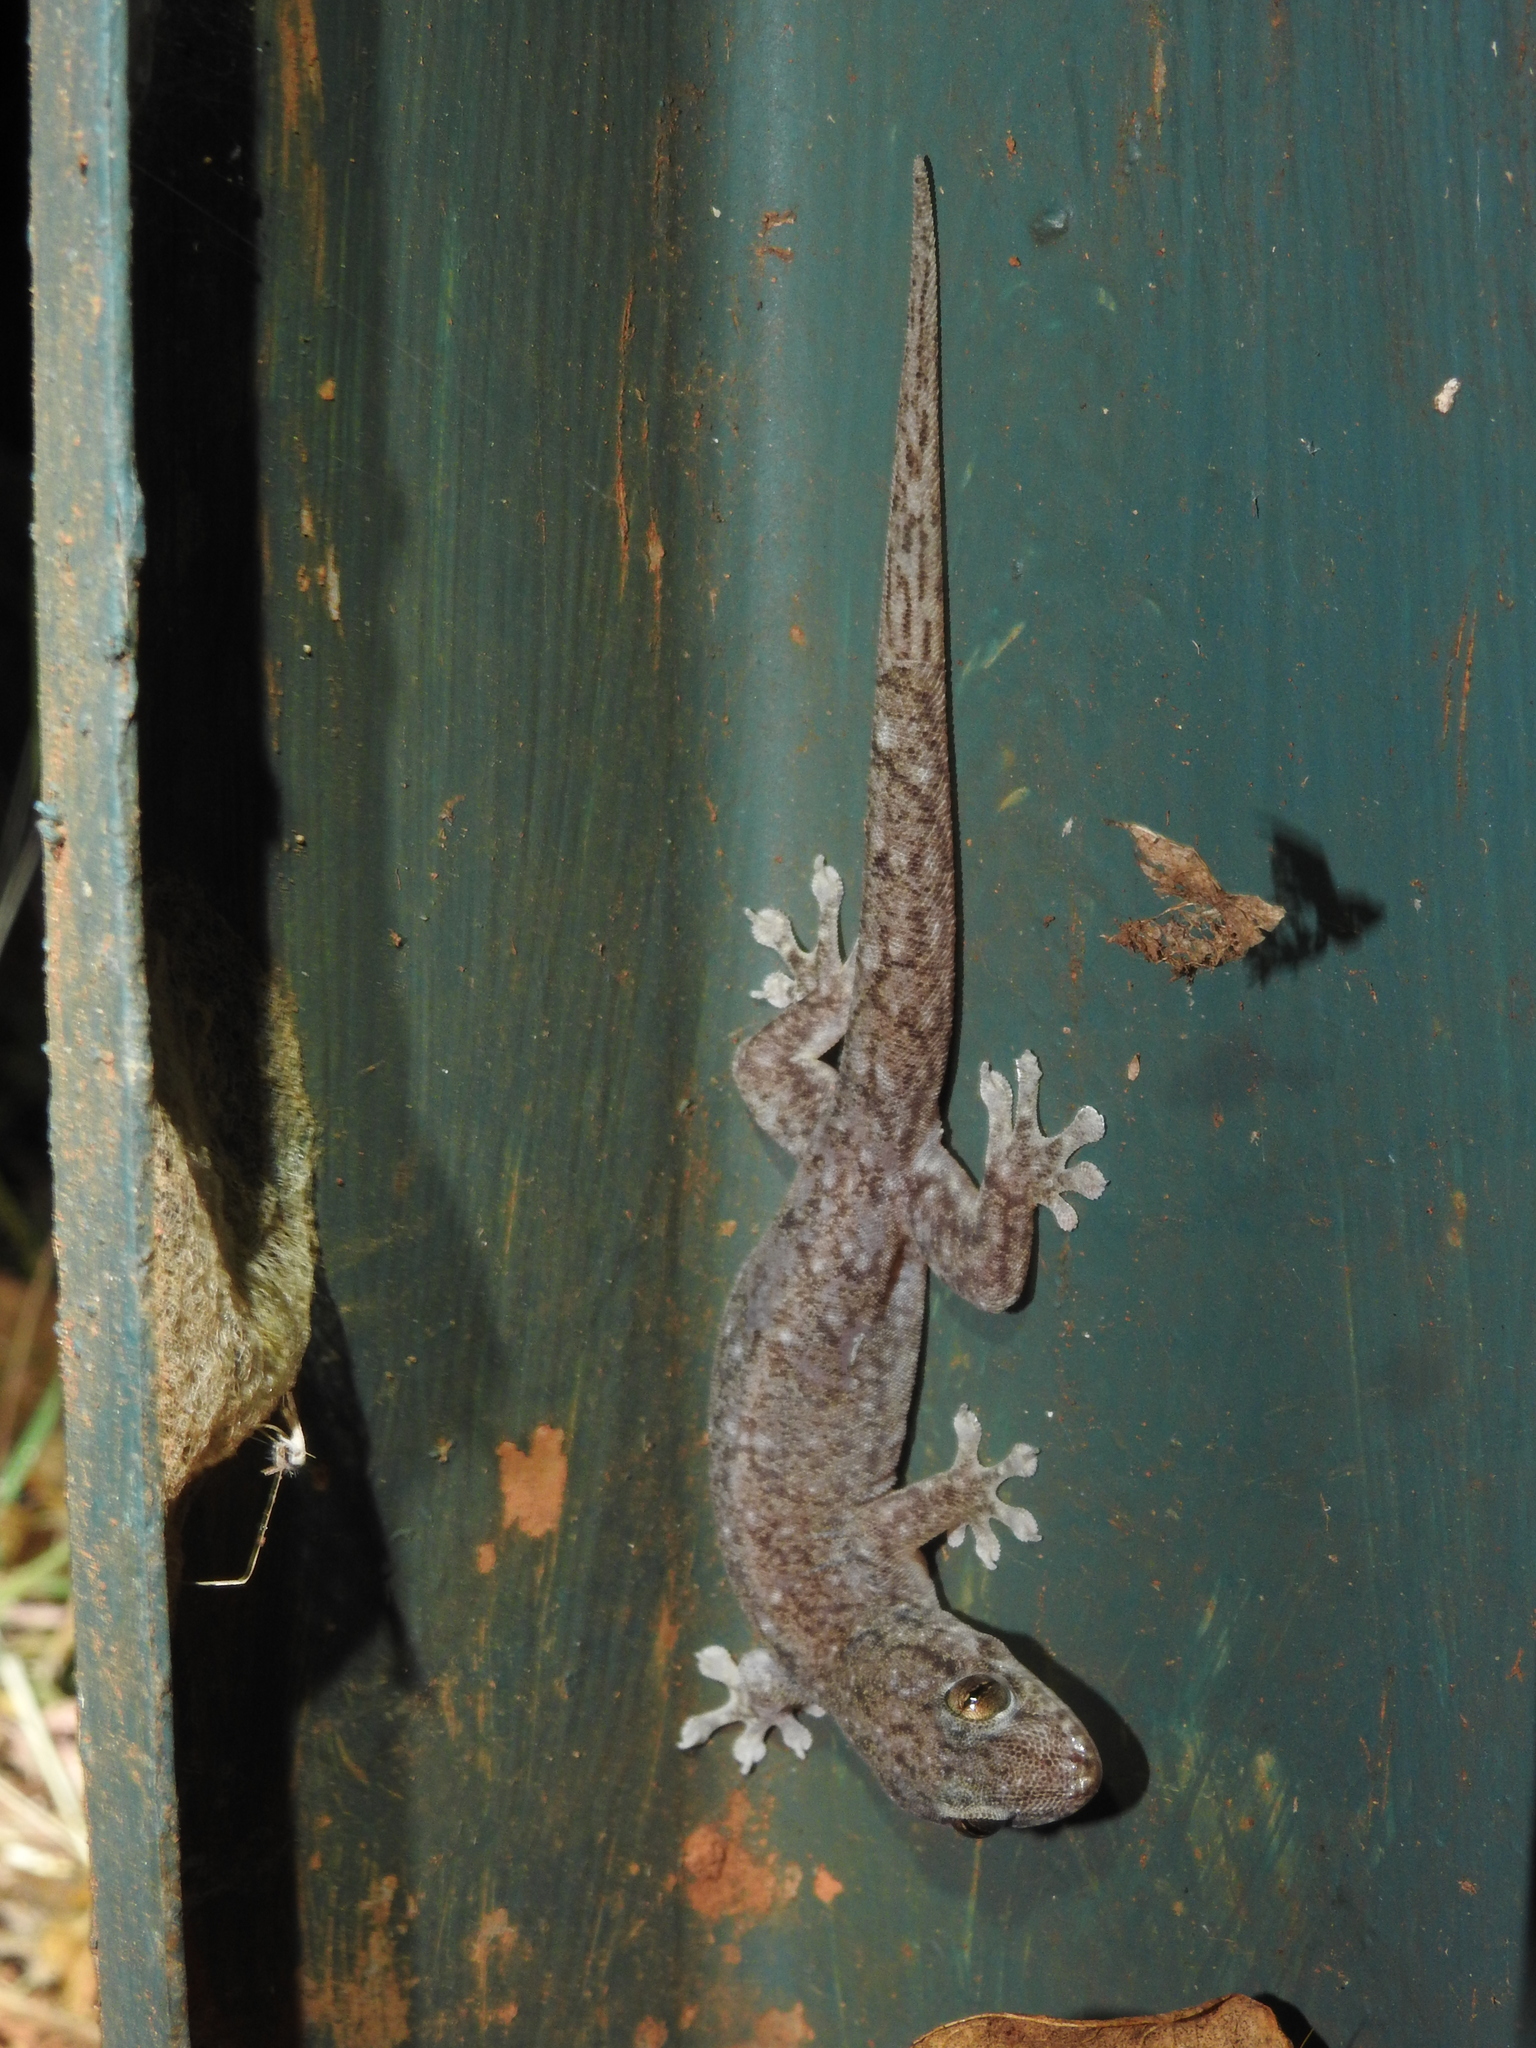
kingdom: Animalia
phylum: Chordata
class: Squamata
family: Gekkonidae
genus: Gehyra
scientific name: Gehyra dubia
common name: Dubious dtella
